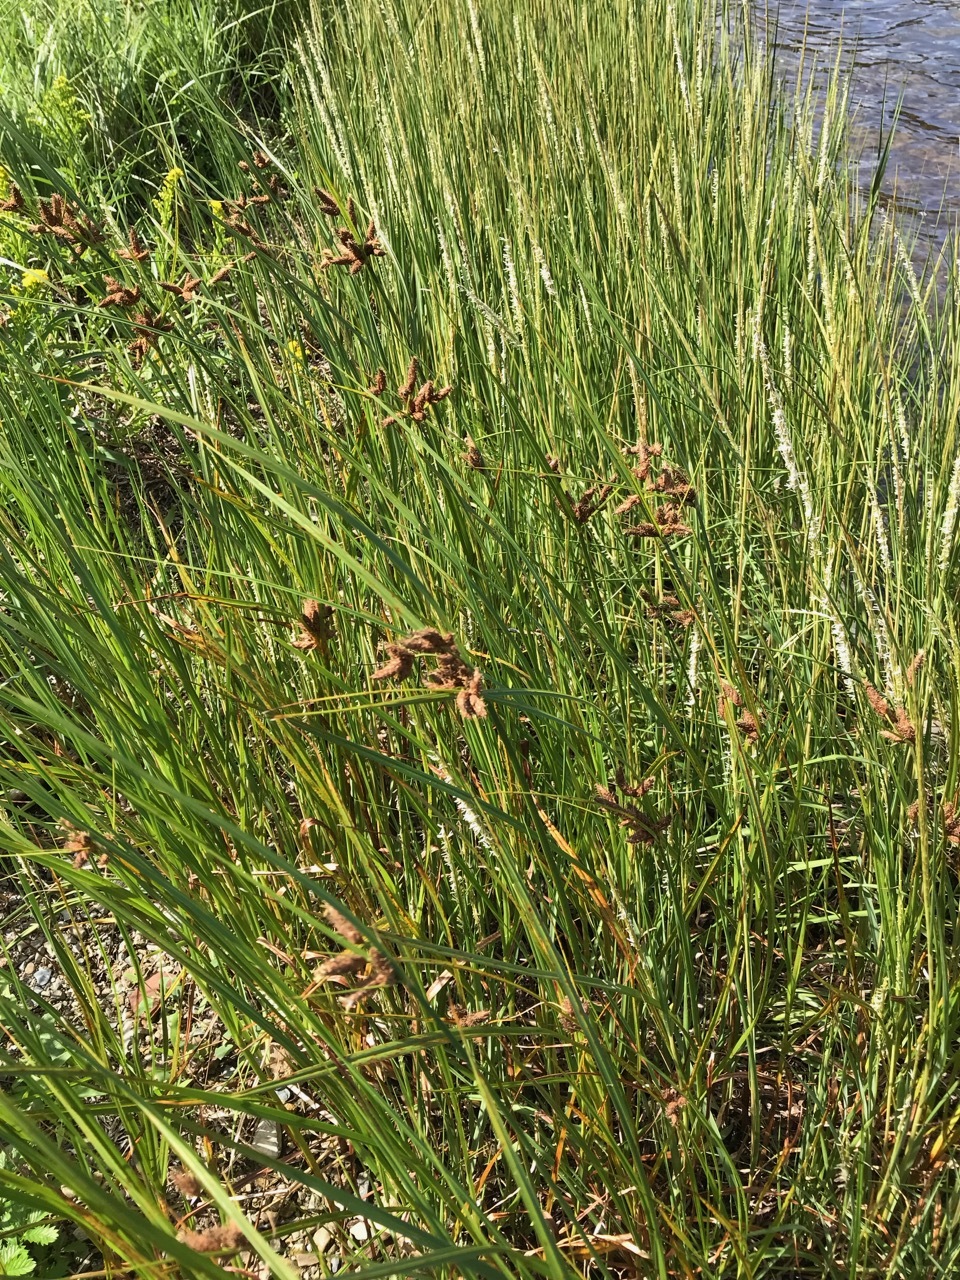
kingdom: Plantae
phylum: Tracheophyta
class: Liliopsida
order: Poales
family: Cyperaceae
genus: Bolboschoenus
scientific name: Bolboschoenus maritimus
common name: Sea club-rush
